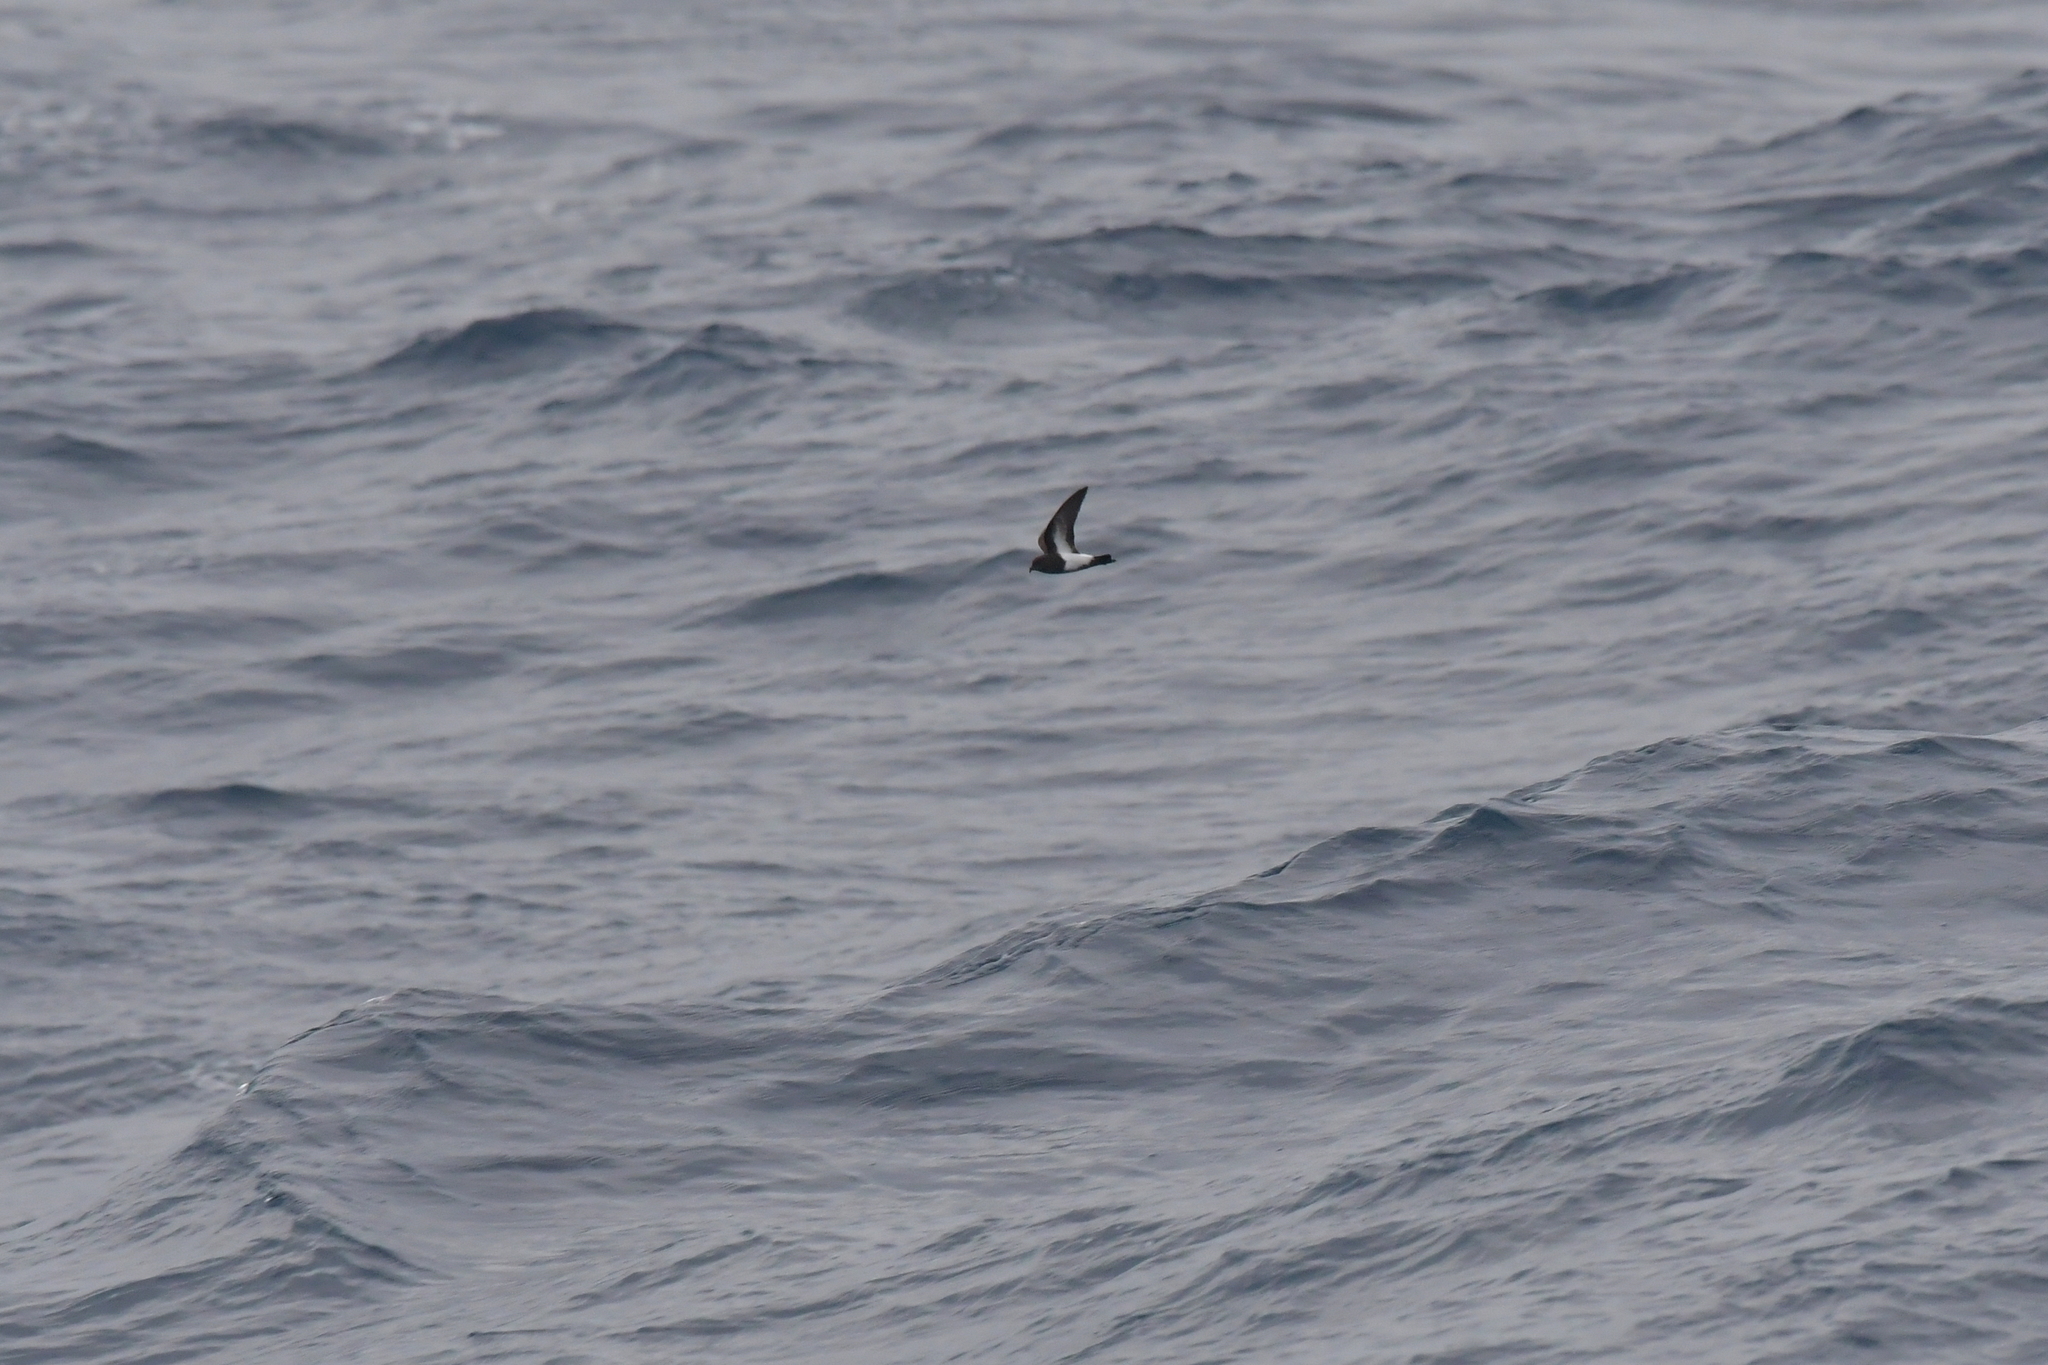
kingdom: Animalia
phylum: Chordata
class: Aves
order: Procellariiformes
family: Hydrobatidae
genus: Fregetta
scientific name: Fregetta tropica
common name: Black-bellied storm-petrel
